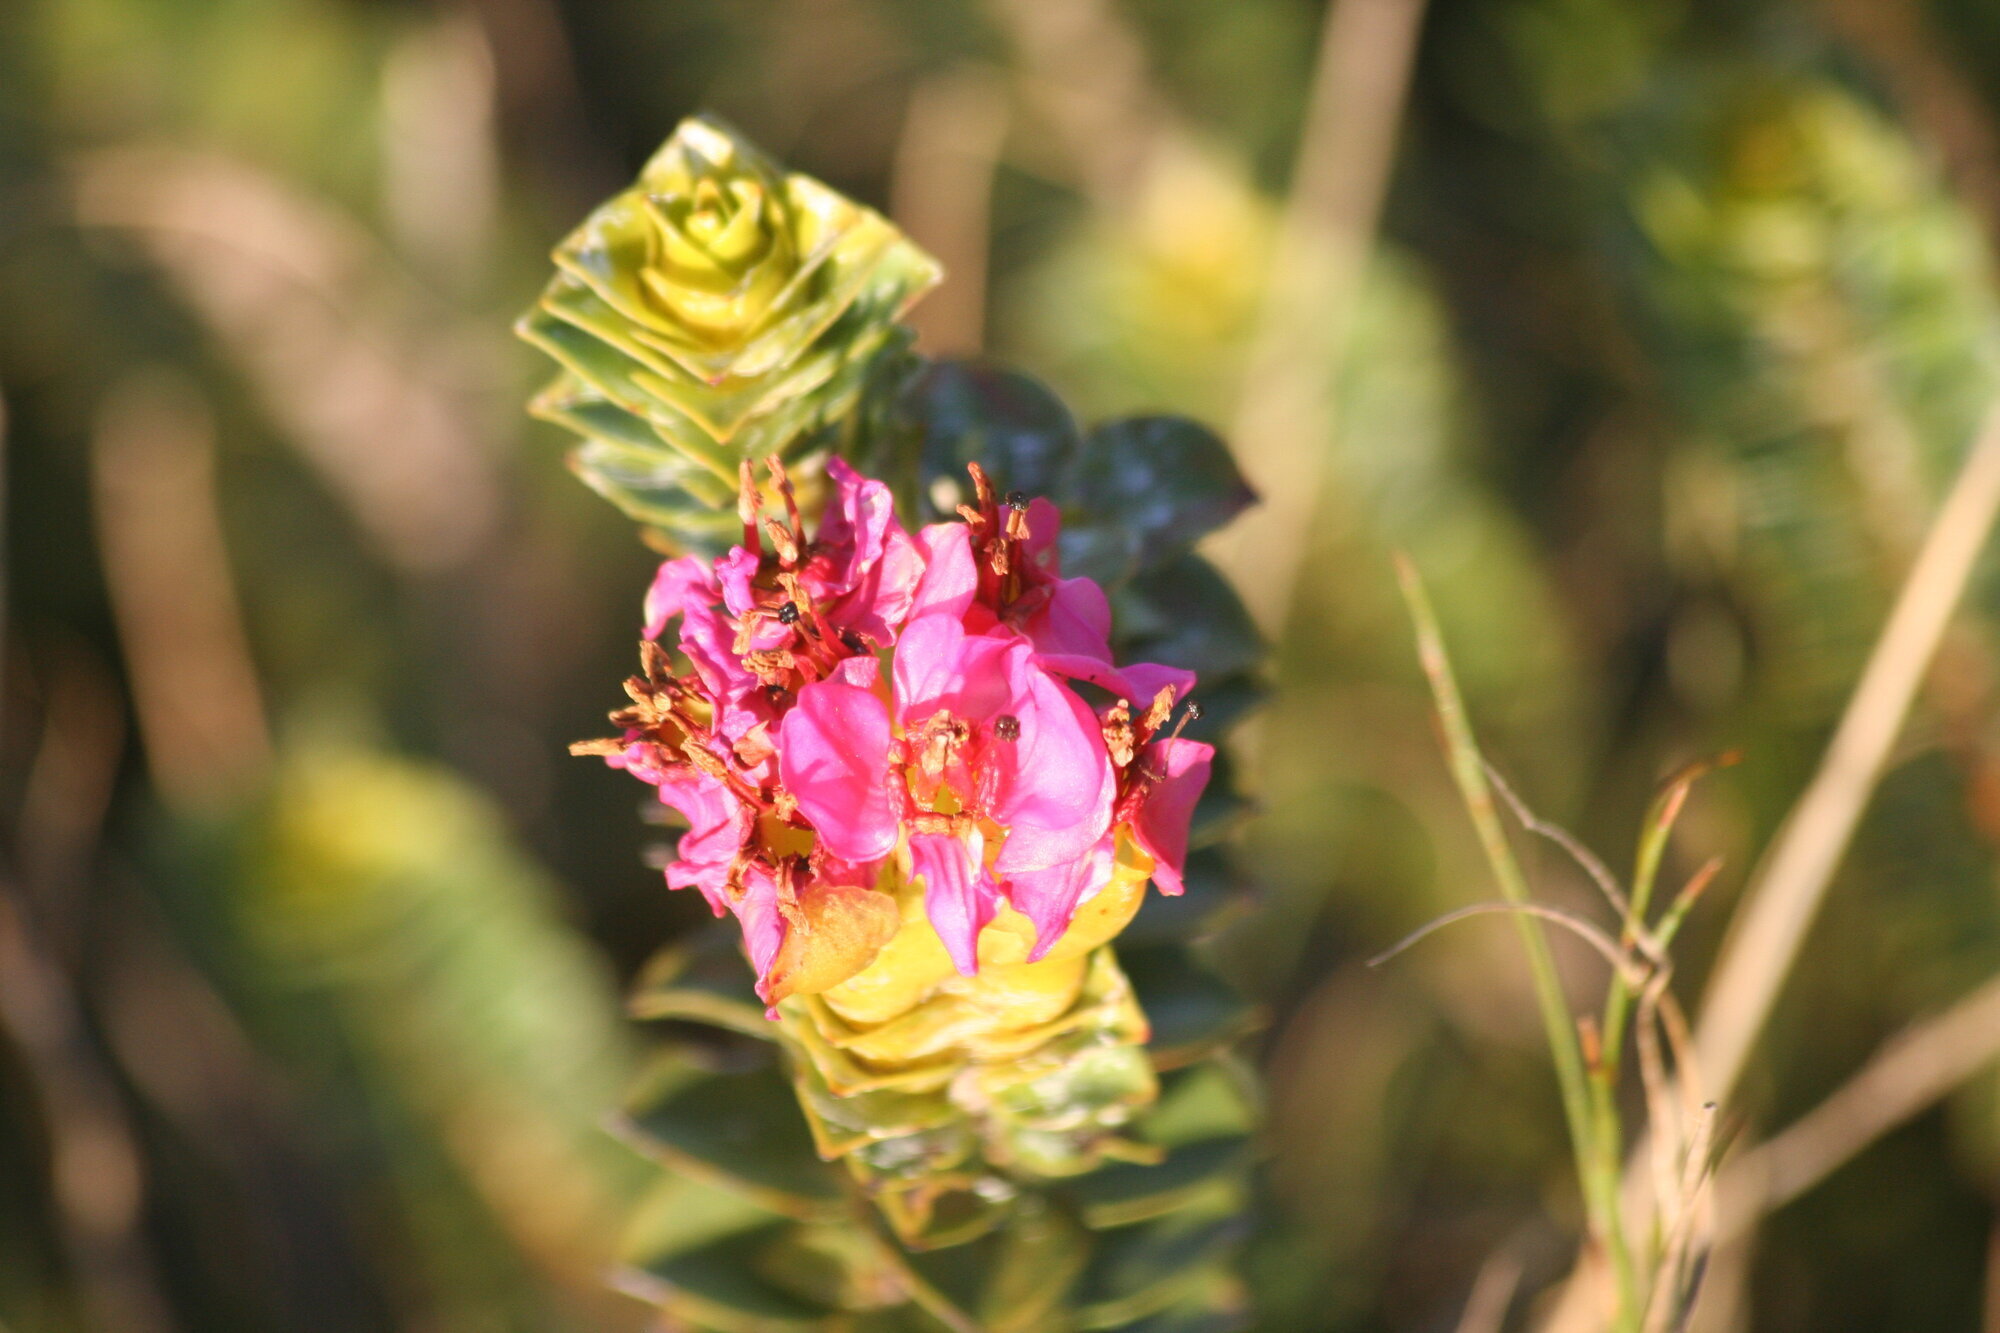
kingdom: Plantae
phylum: Tracheophyta
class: Magnoliopsida
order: Myrtales
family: Penaeaceae
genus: Saltera
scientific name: Saltera sarcocolla
